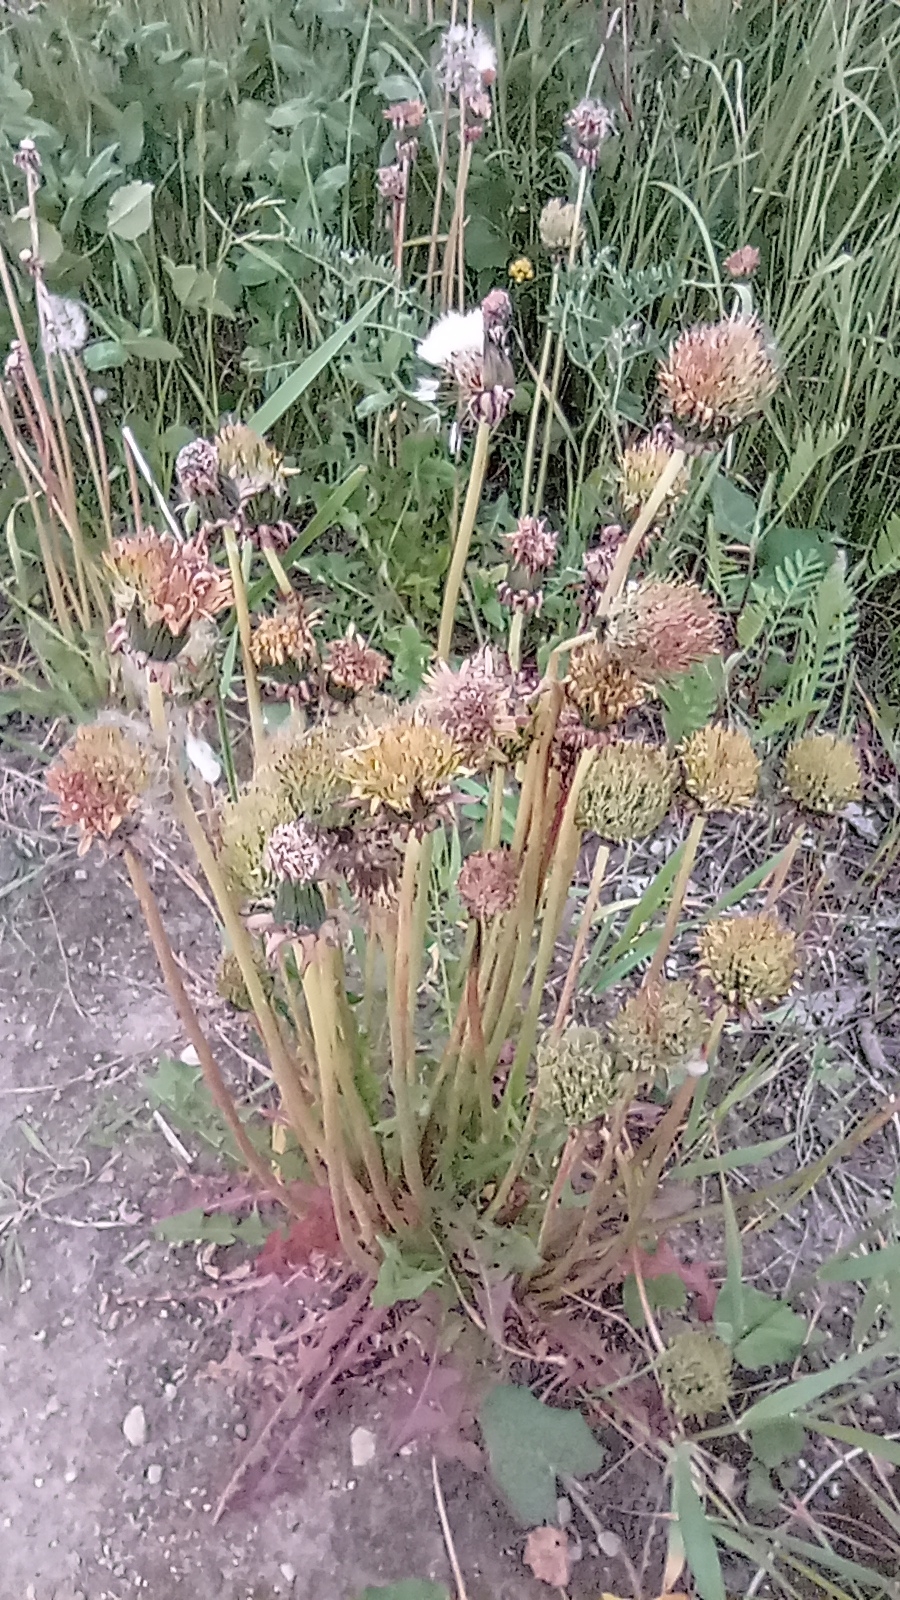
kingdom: Plantae
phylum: Tracheophyta
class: Magnoliopsida
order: Asterales
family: Asteraceae
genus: Taraxacum
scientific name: Taraxacum officinale
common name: Common dandelion
